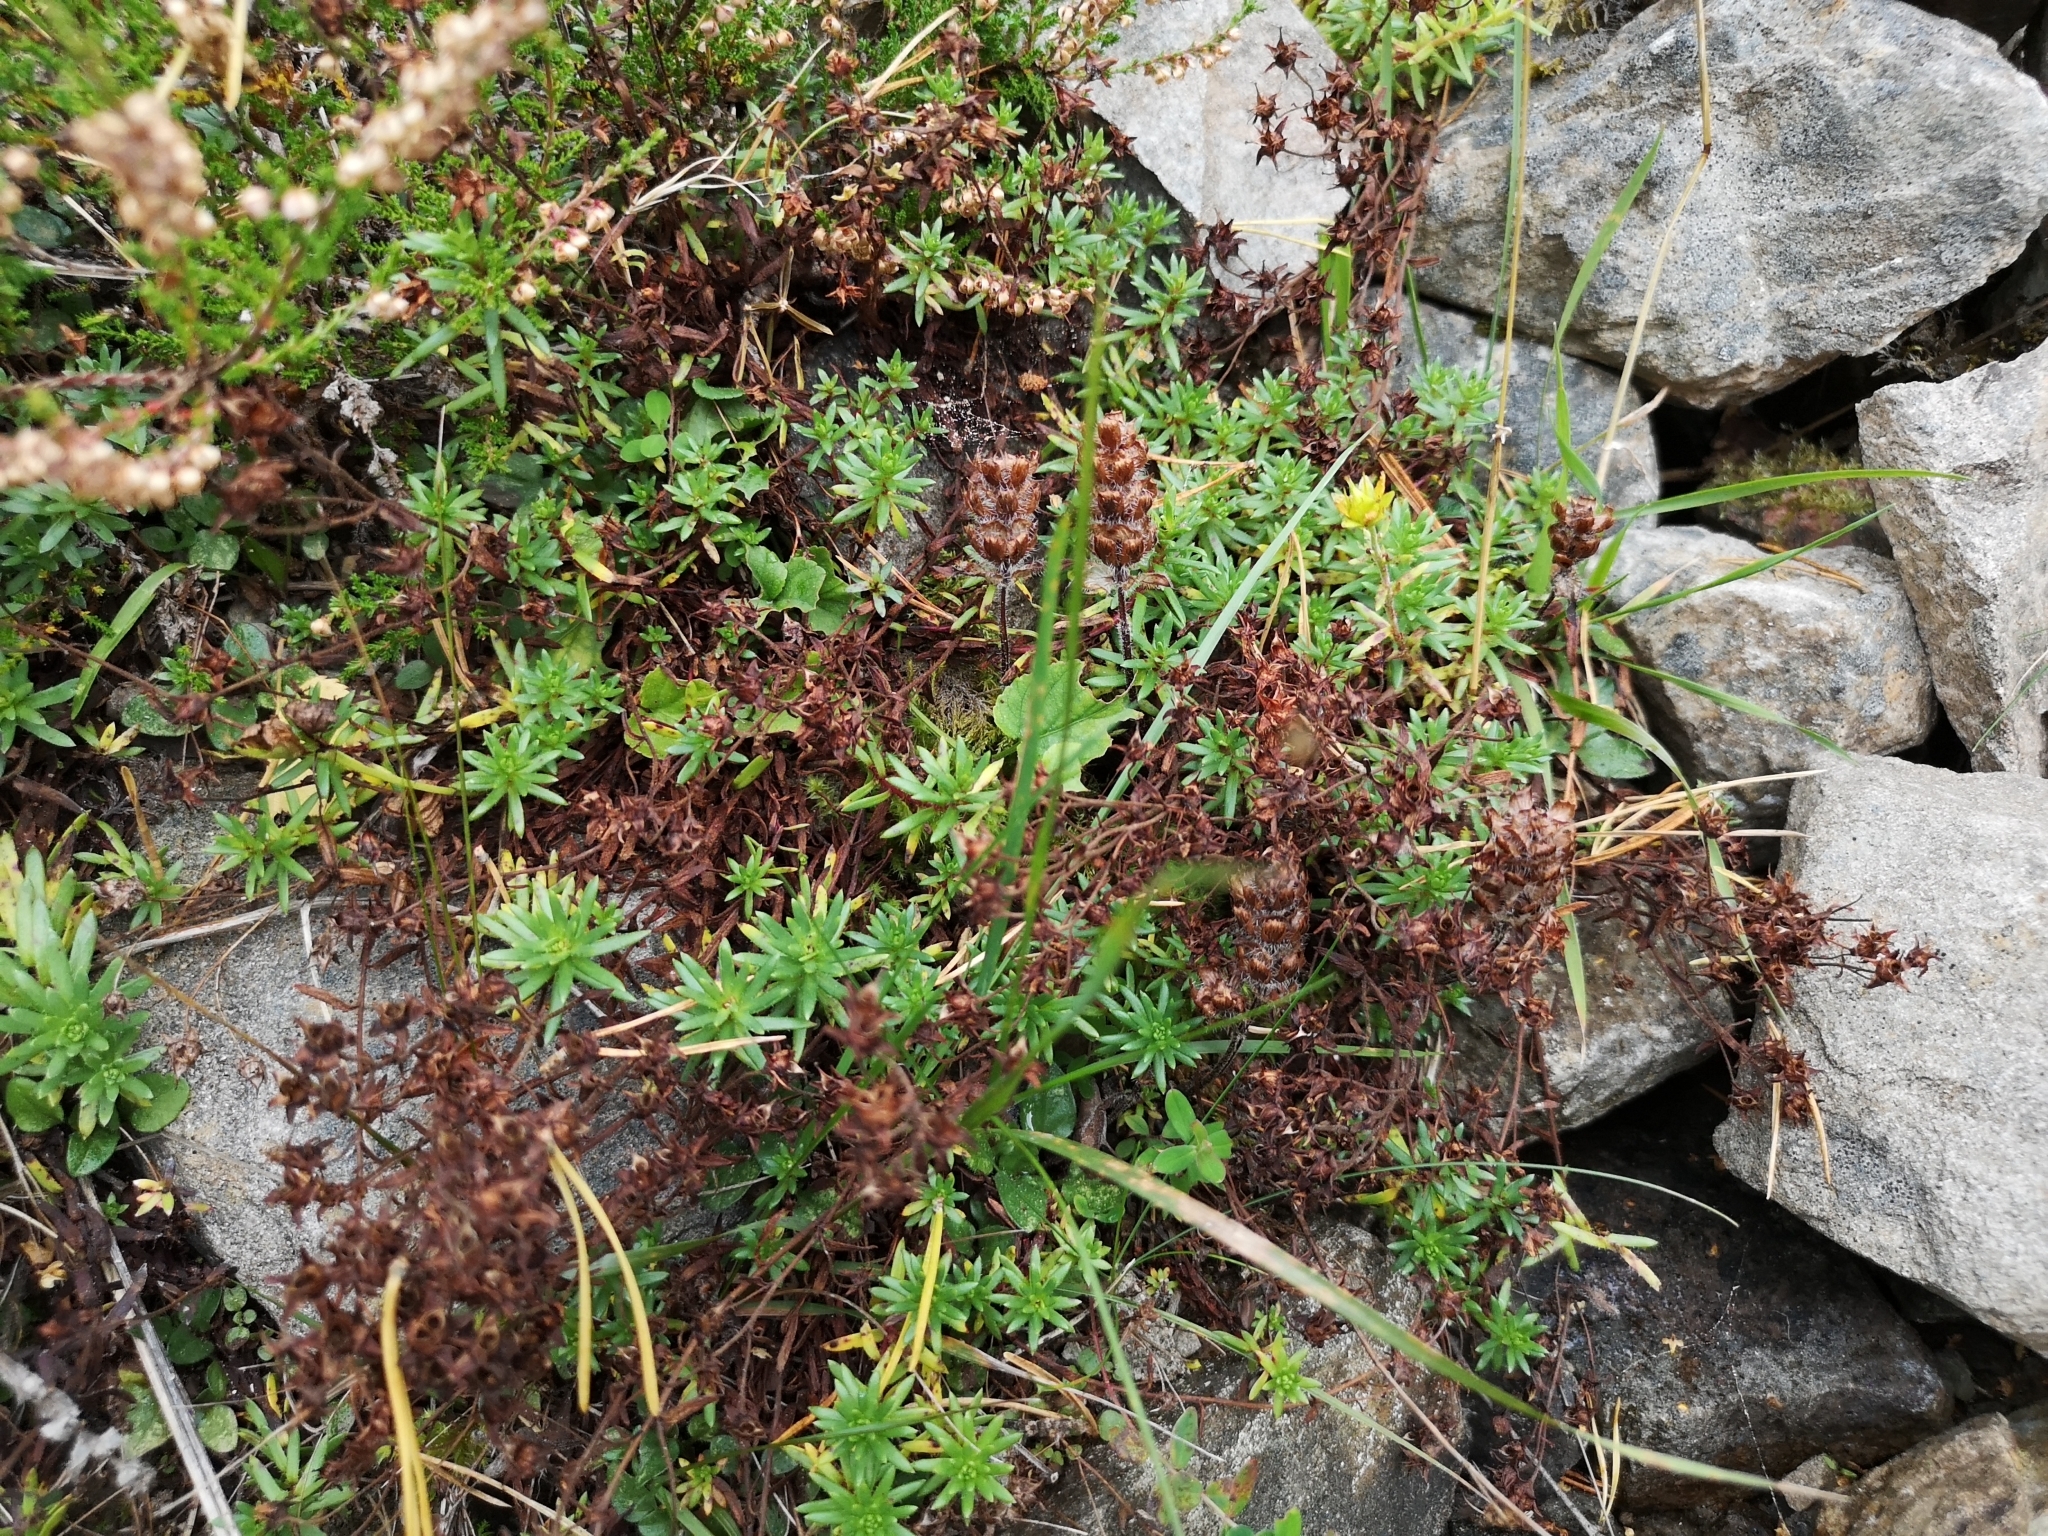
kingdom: Plantae
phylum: Tracheophyta
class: Magnoliopsida
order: Saxifragales
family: Saxifragaceae
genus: Saxifraga
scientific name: Saxifraga aizoides
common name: Yellow mountain saxifrage
